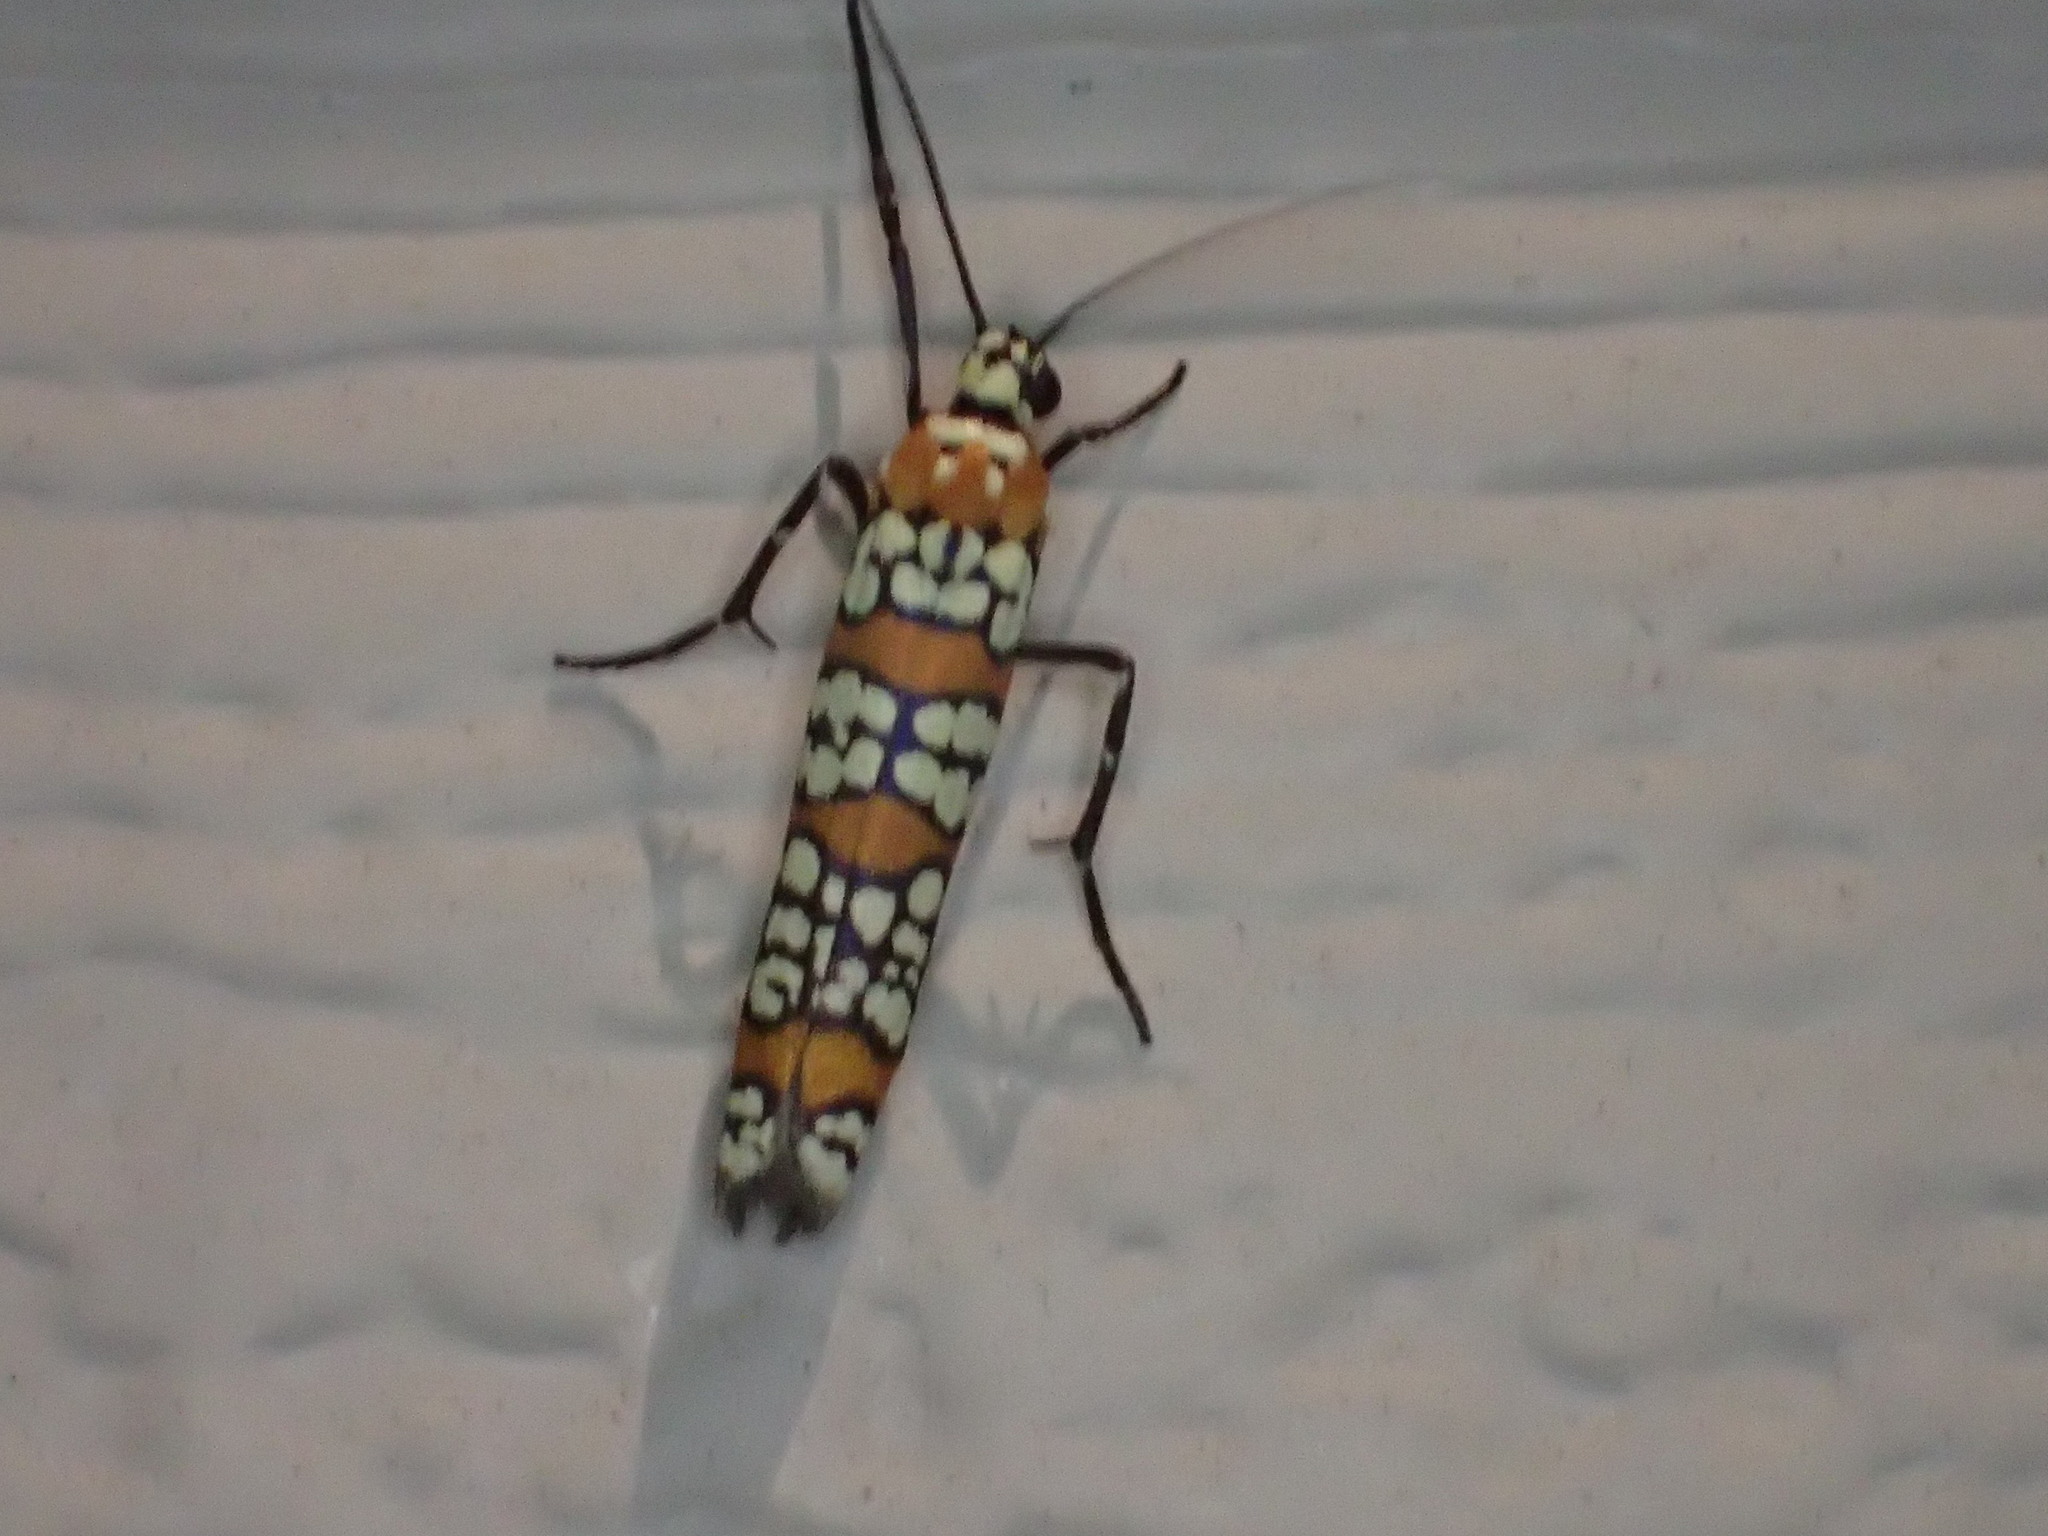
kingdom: Animalia
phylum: Arthropoda
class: Insecta
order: Lepidoptera
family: Attevidae
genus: Atteva
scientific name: Atteva punctella
